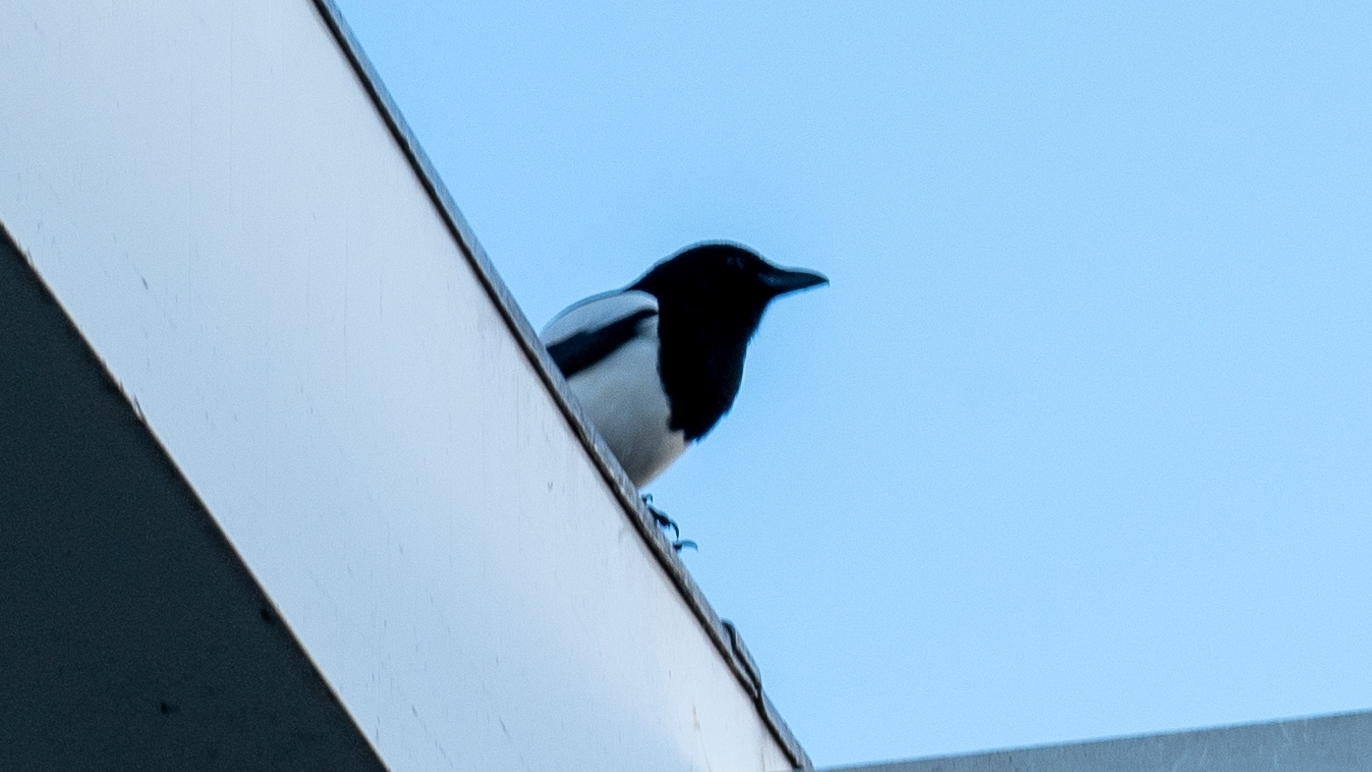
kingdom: Animalia
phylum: Chordata
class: Aves
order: Passeriformes
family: Corvidae
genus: Pica
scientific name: Pica pica
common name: Eurasian magpie
